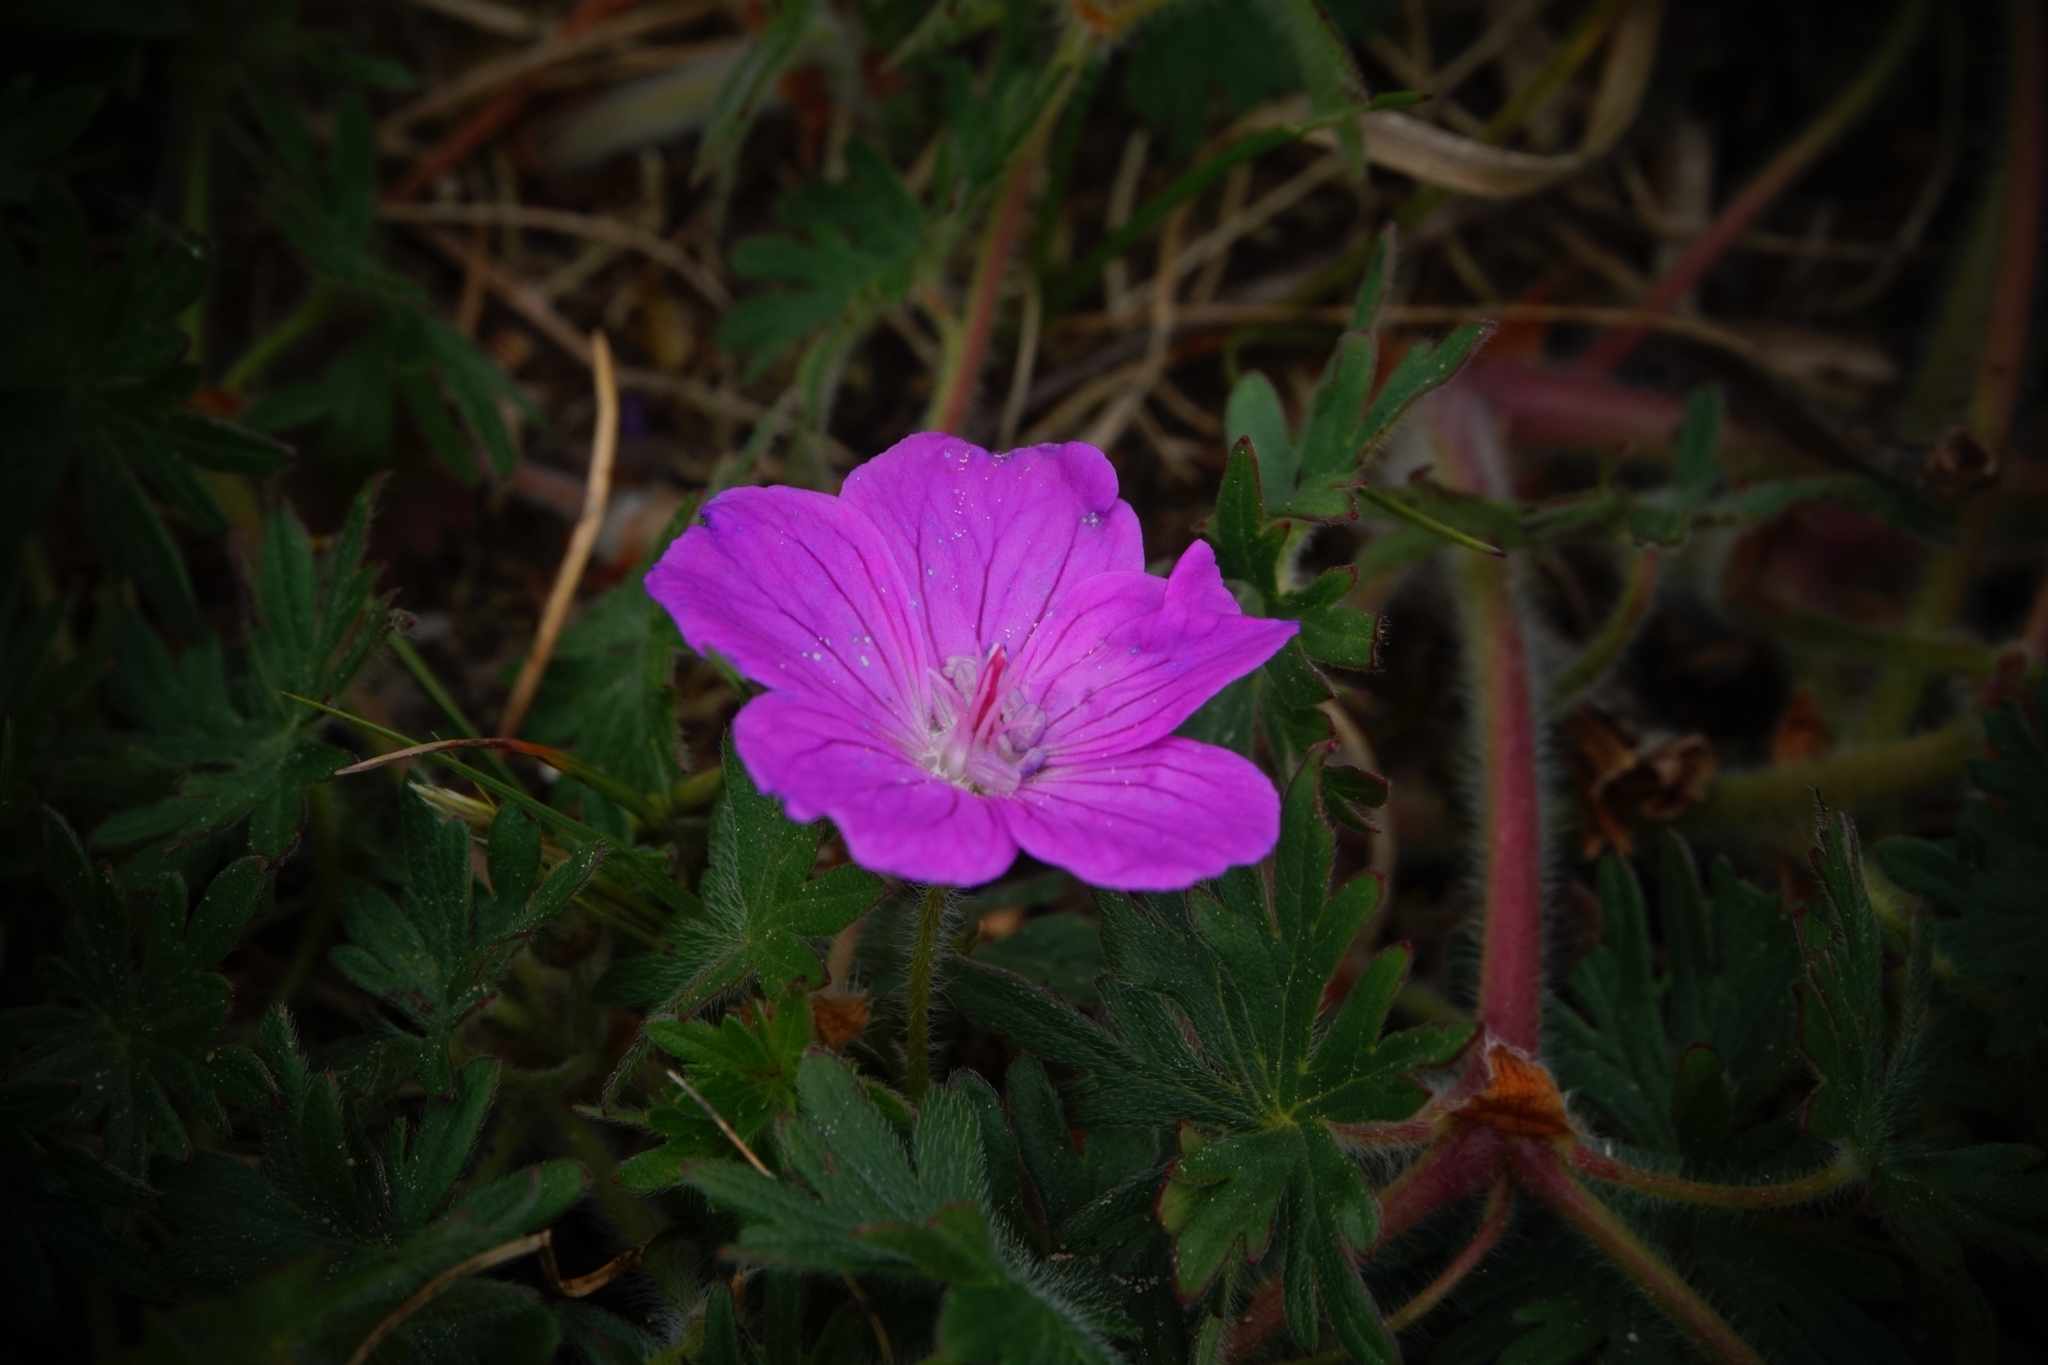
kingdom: Plantae
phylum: Tracheophyta
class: Magnoliopsida
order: Geraniales
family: Geraniaceae
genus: Geranium
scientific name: Geranium sanguineum
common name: Bloody crane's-bill
